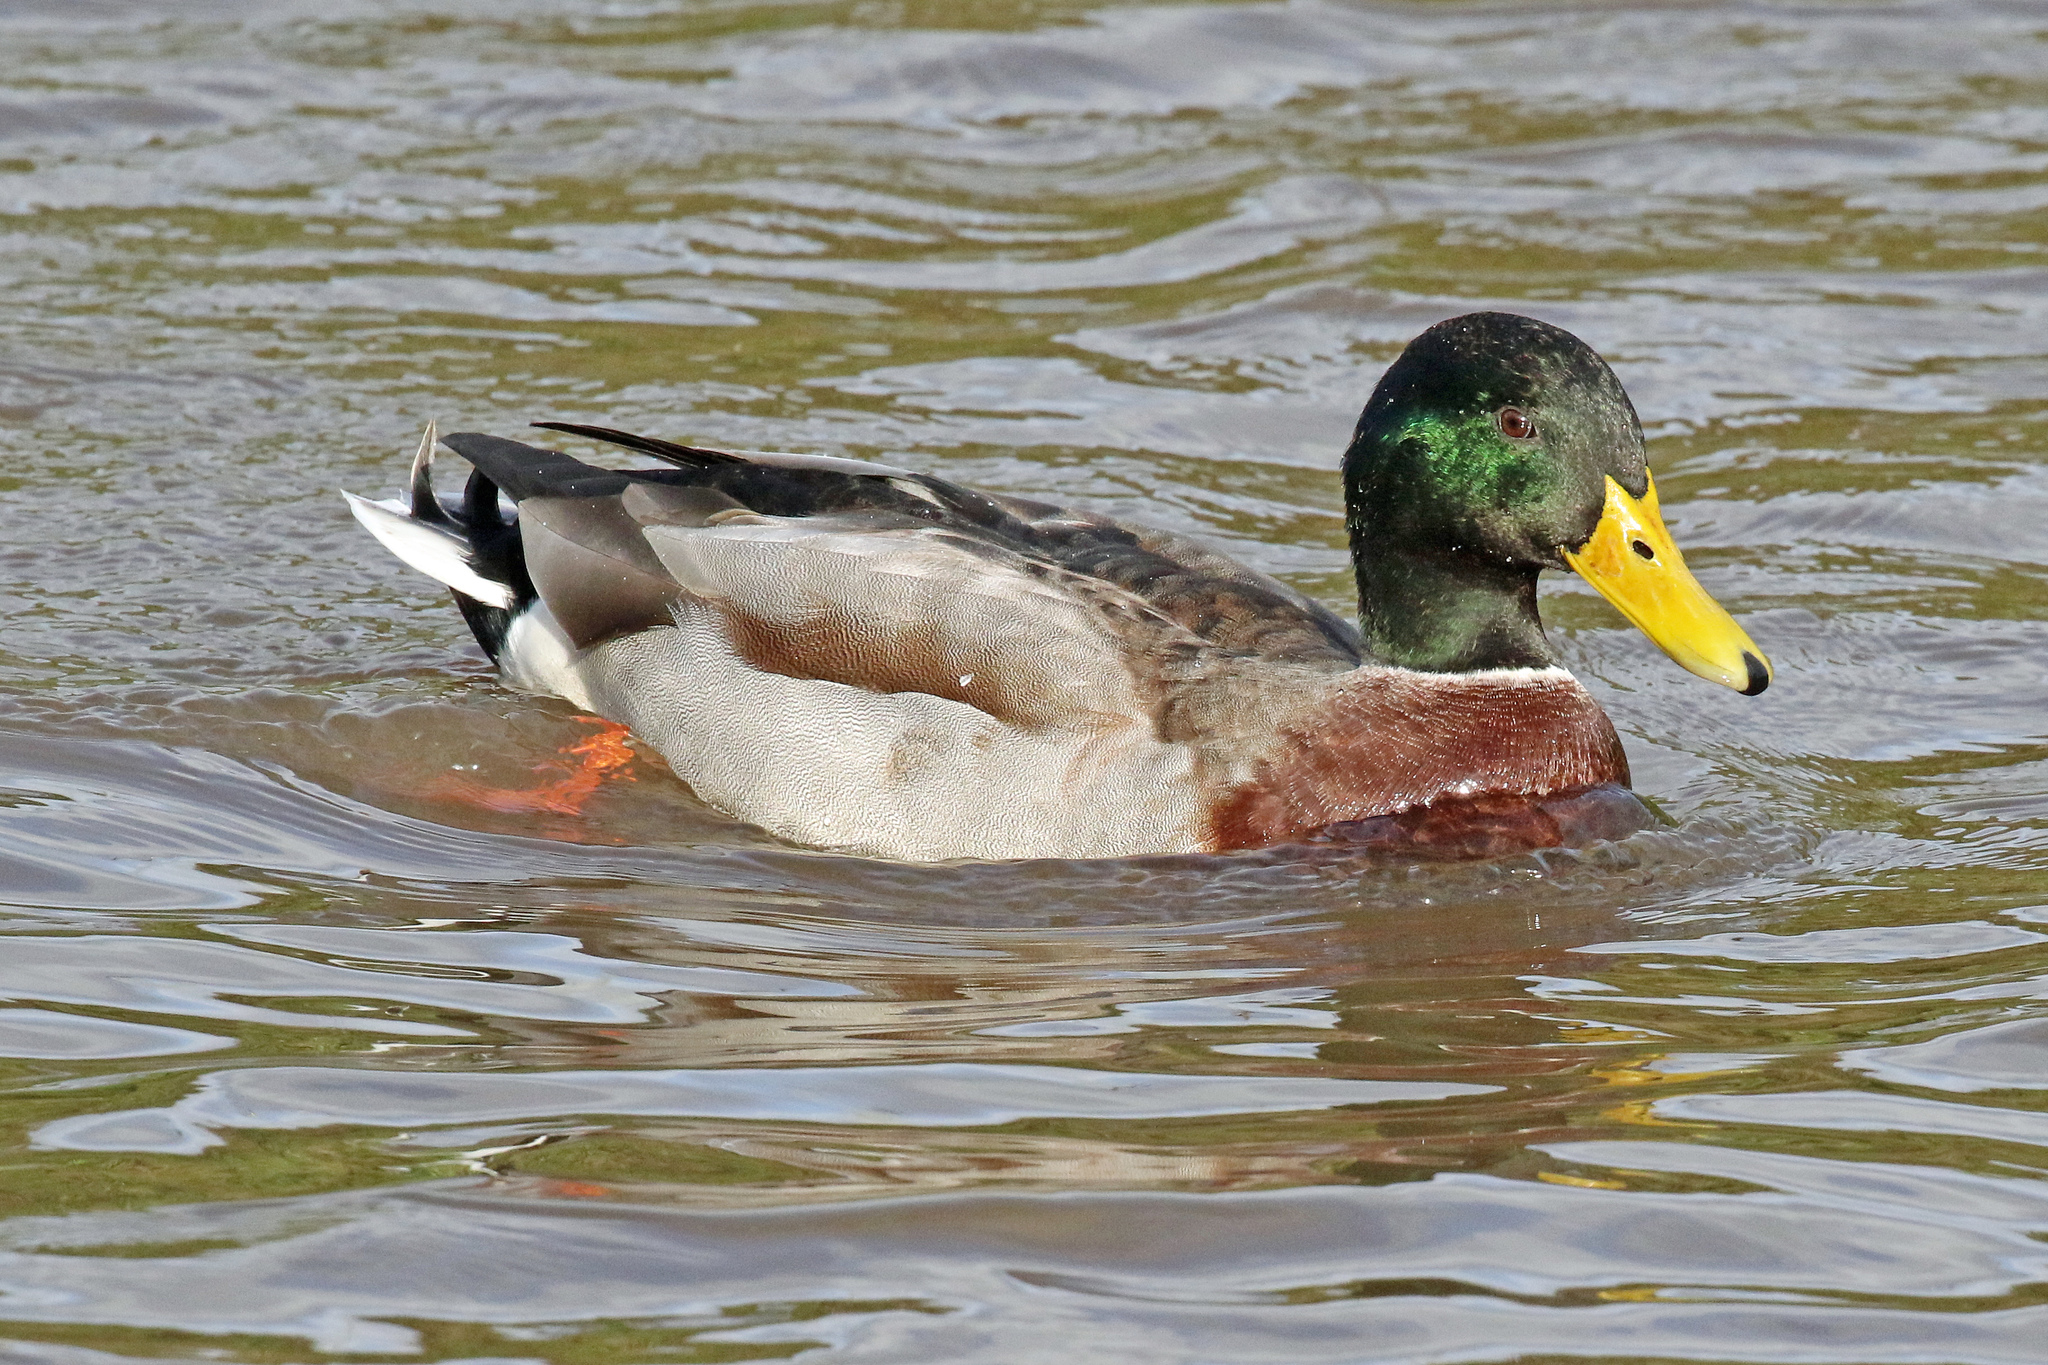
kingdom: Animalia
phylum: Chordata
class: Aves
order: Anseriformes
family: Anatidae
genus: Anas
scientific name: Anas platyrhynchos
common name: Mallard
